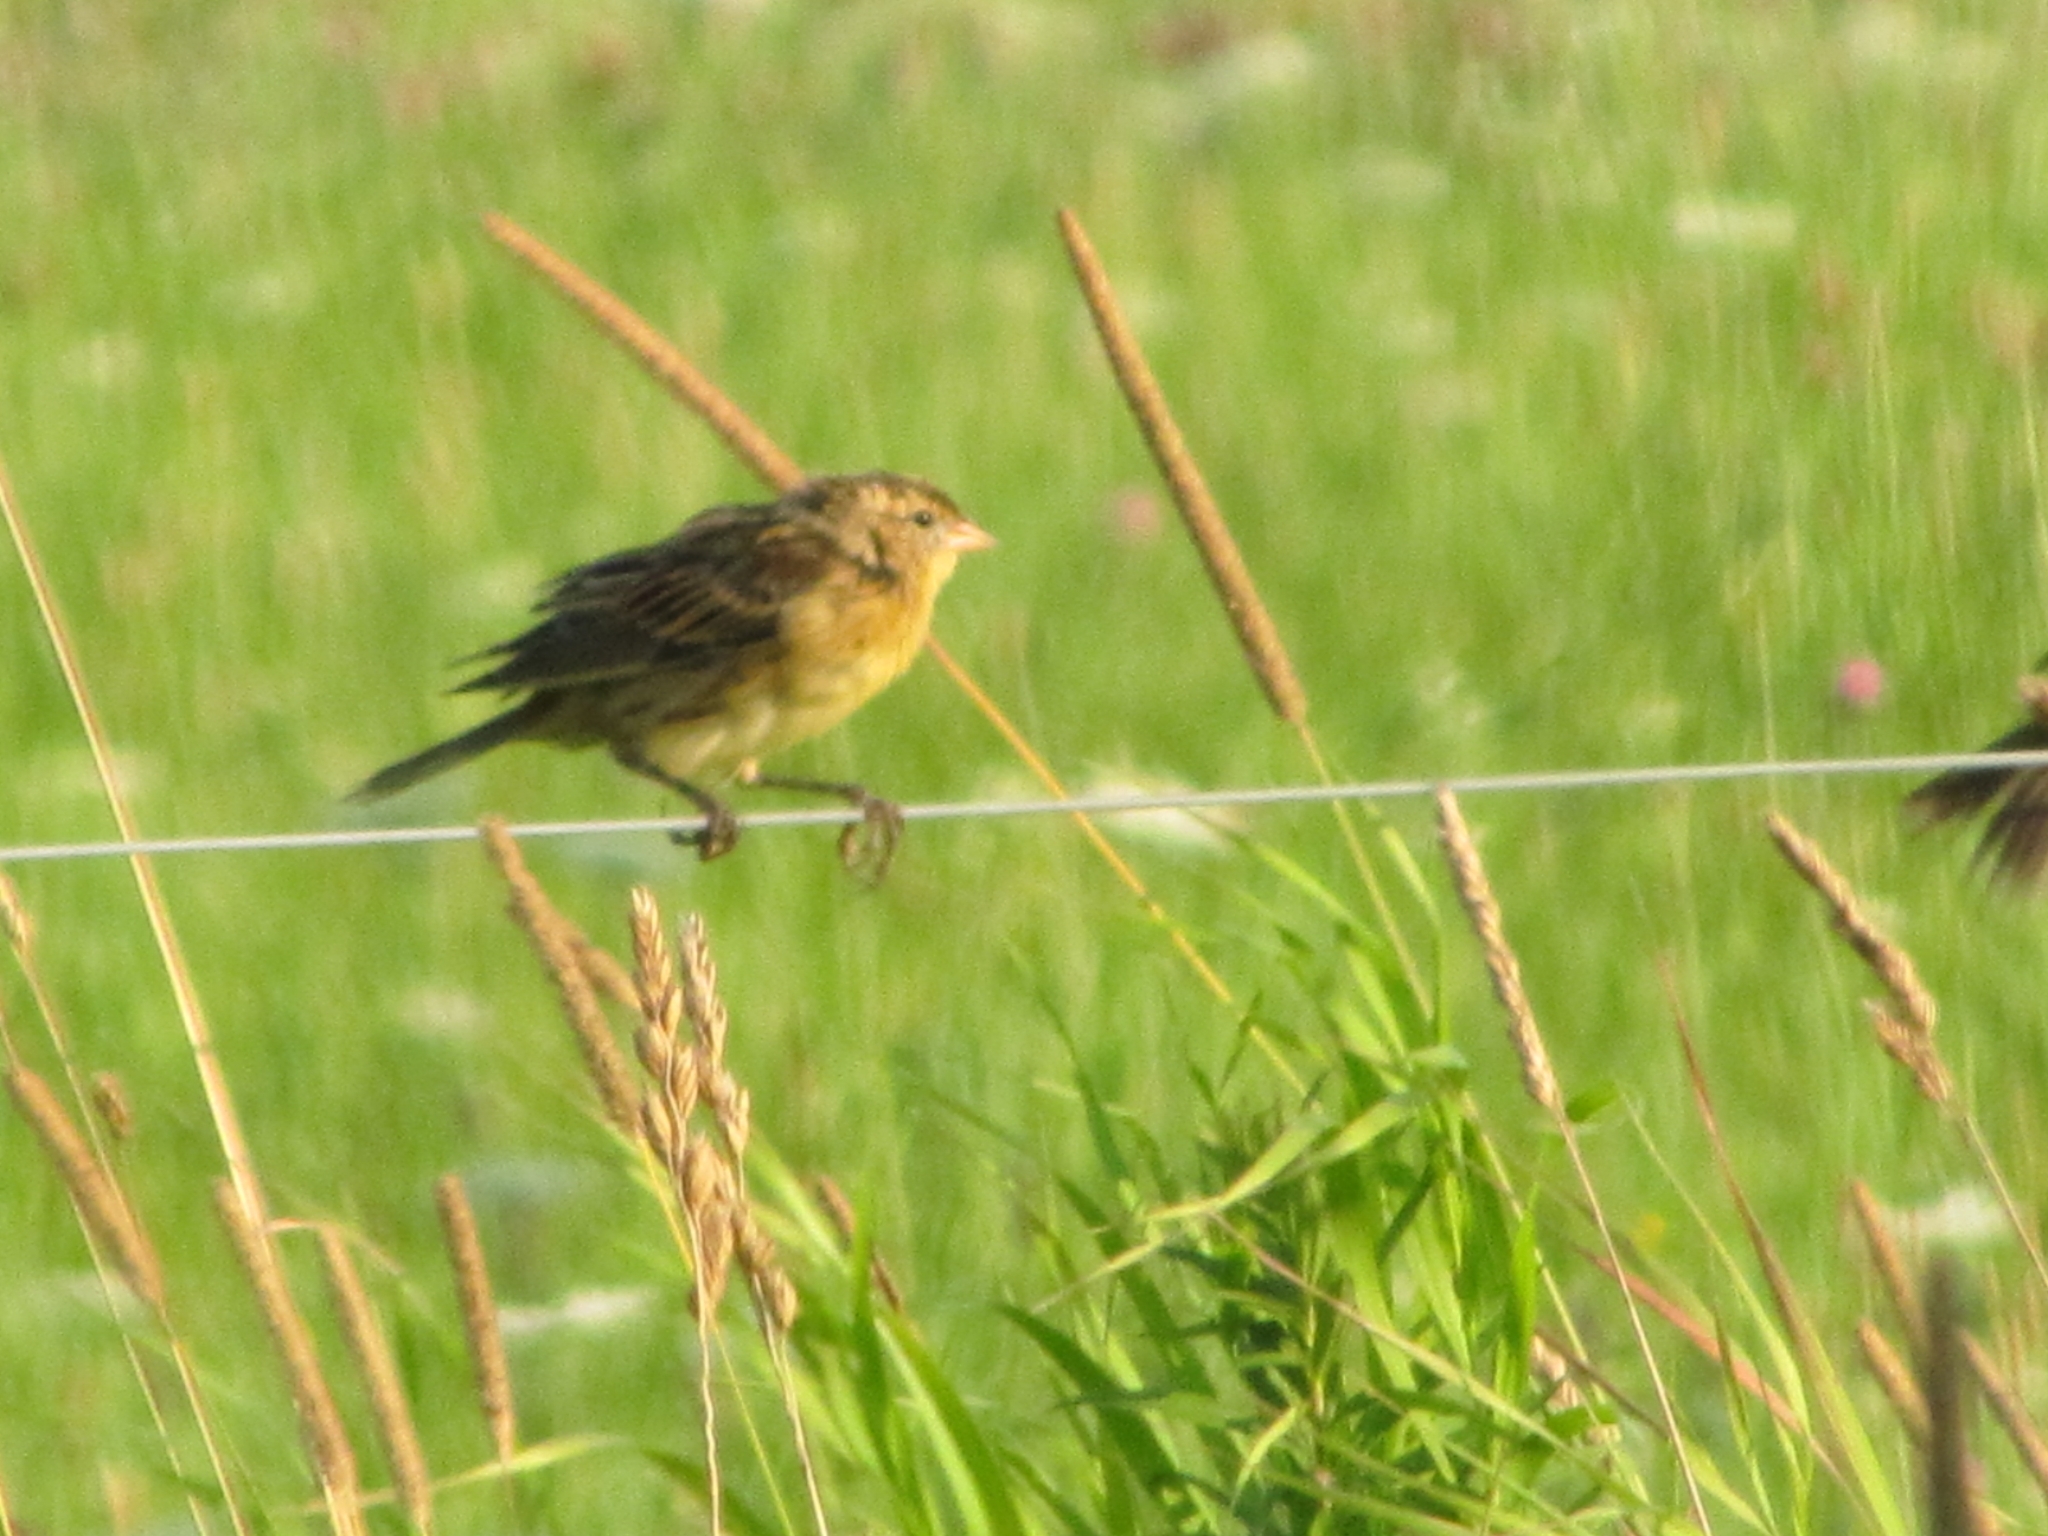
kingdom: Animalia
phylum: Chordata
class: Aves
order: Passeriformes
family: Icteridae
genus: Dolichonyx
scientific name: Dolichonyx oryzivorus
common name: Bobolink
